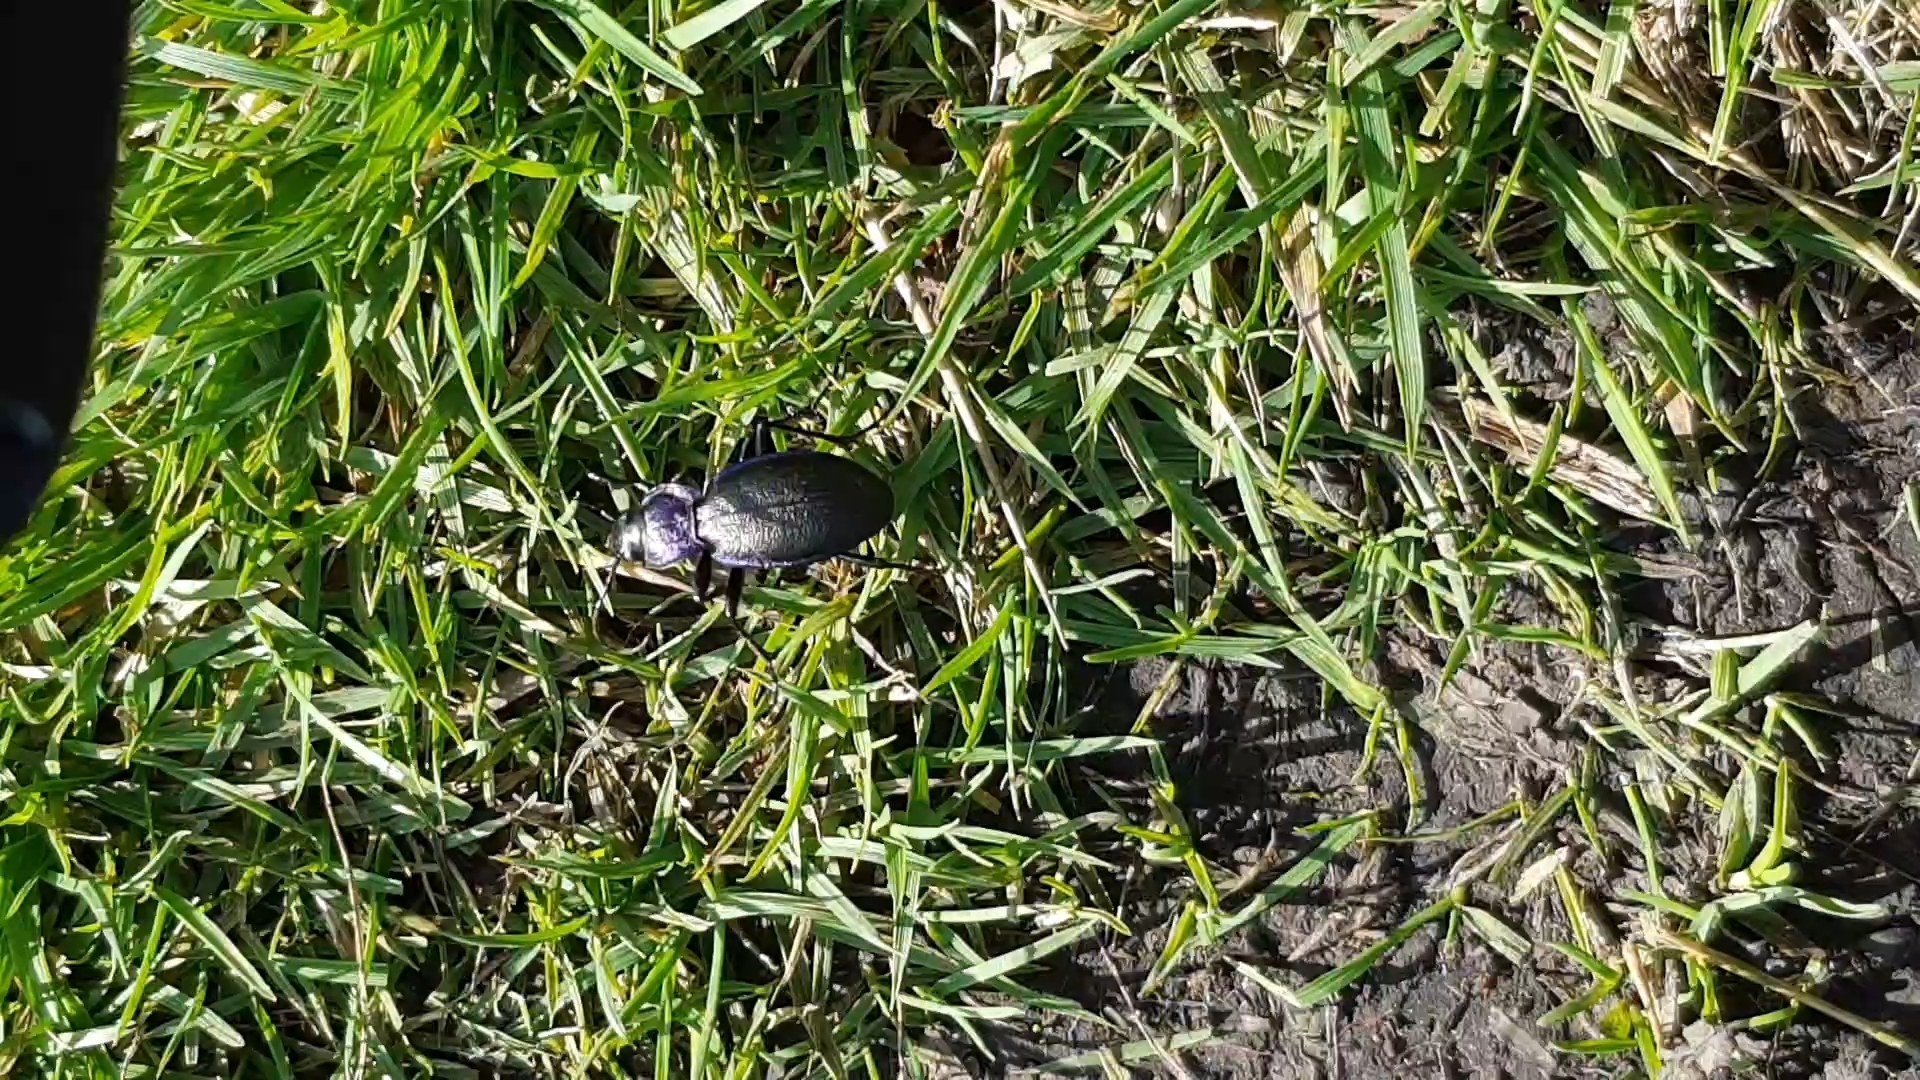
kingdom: Animalia
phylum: Arthropoda
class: Insecta
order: Coleoptera
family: Carabidae
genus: Carabus
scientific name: Carabus problematicus
